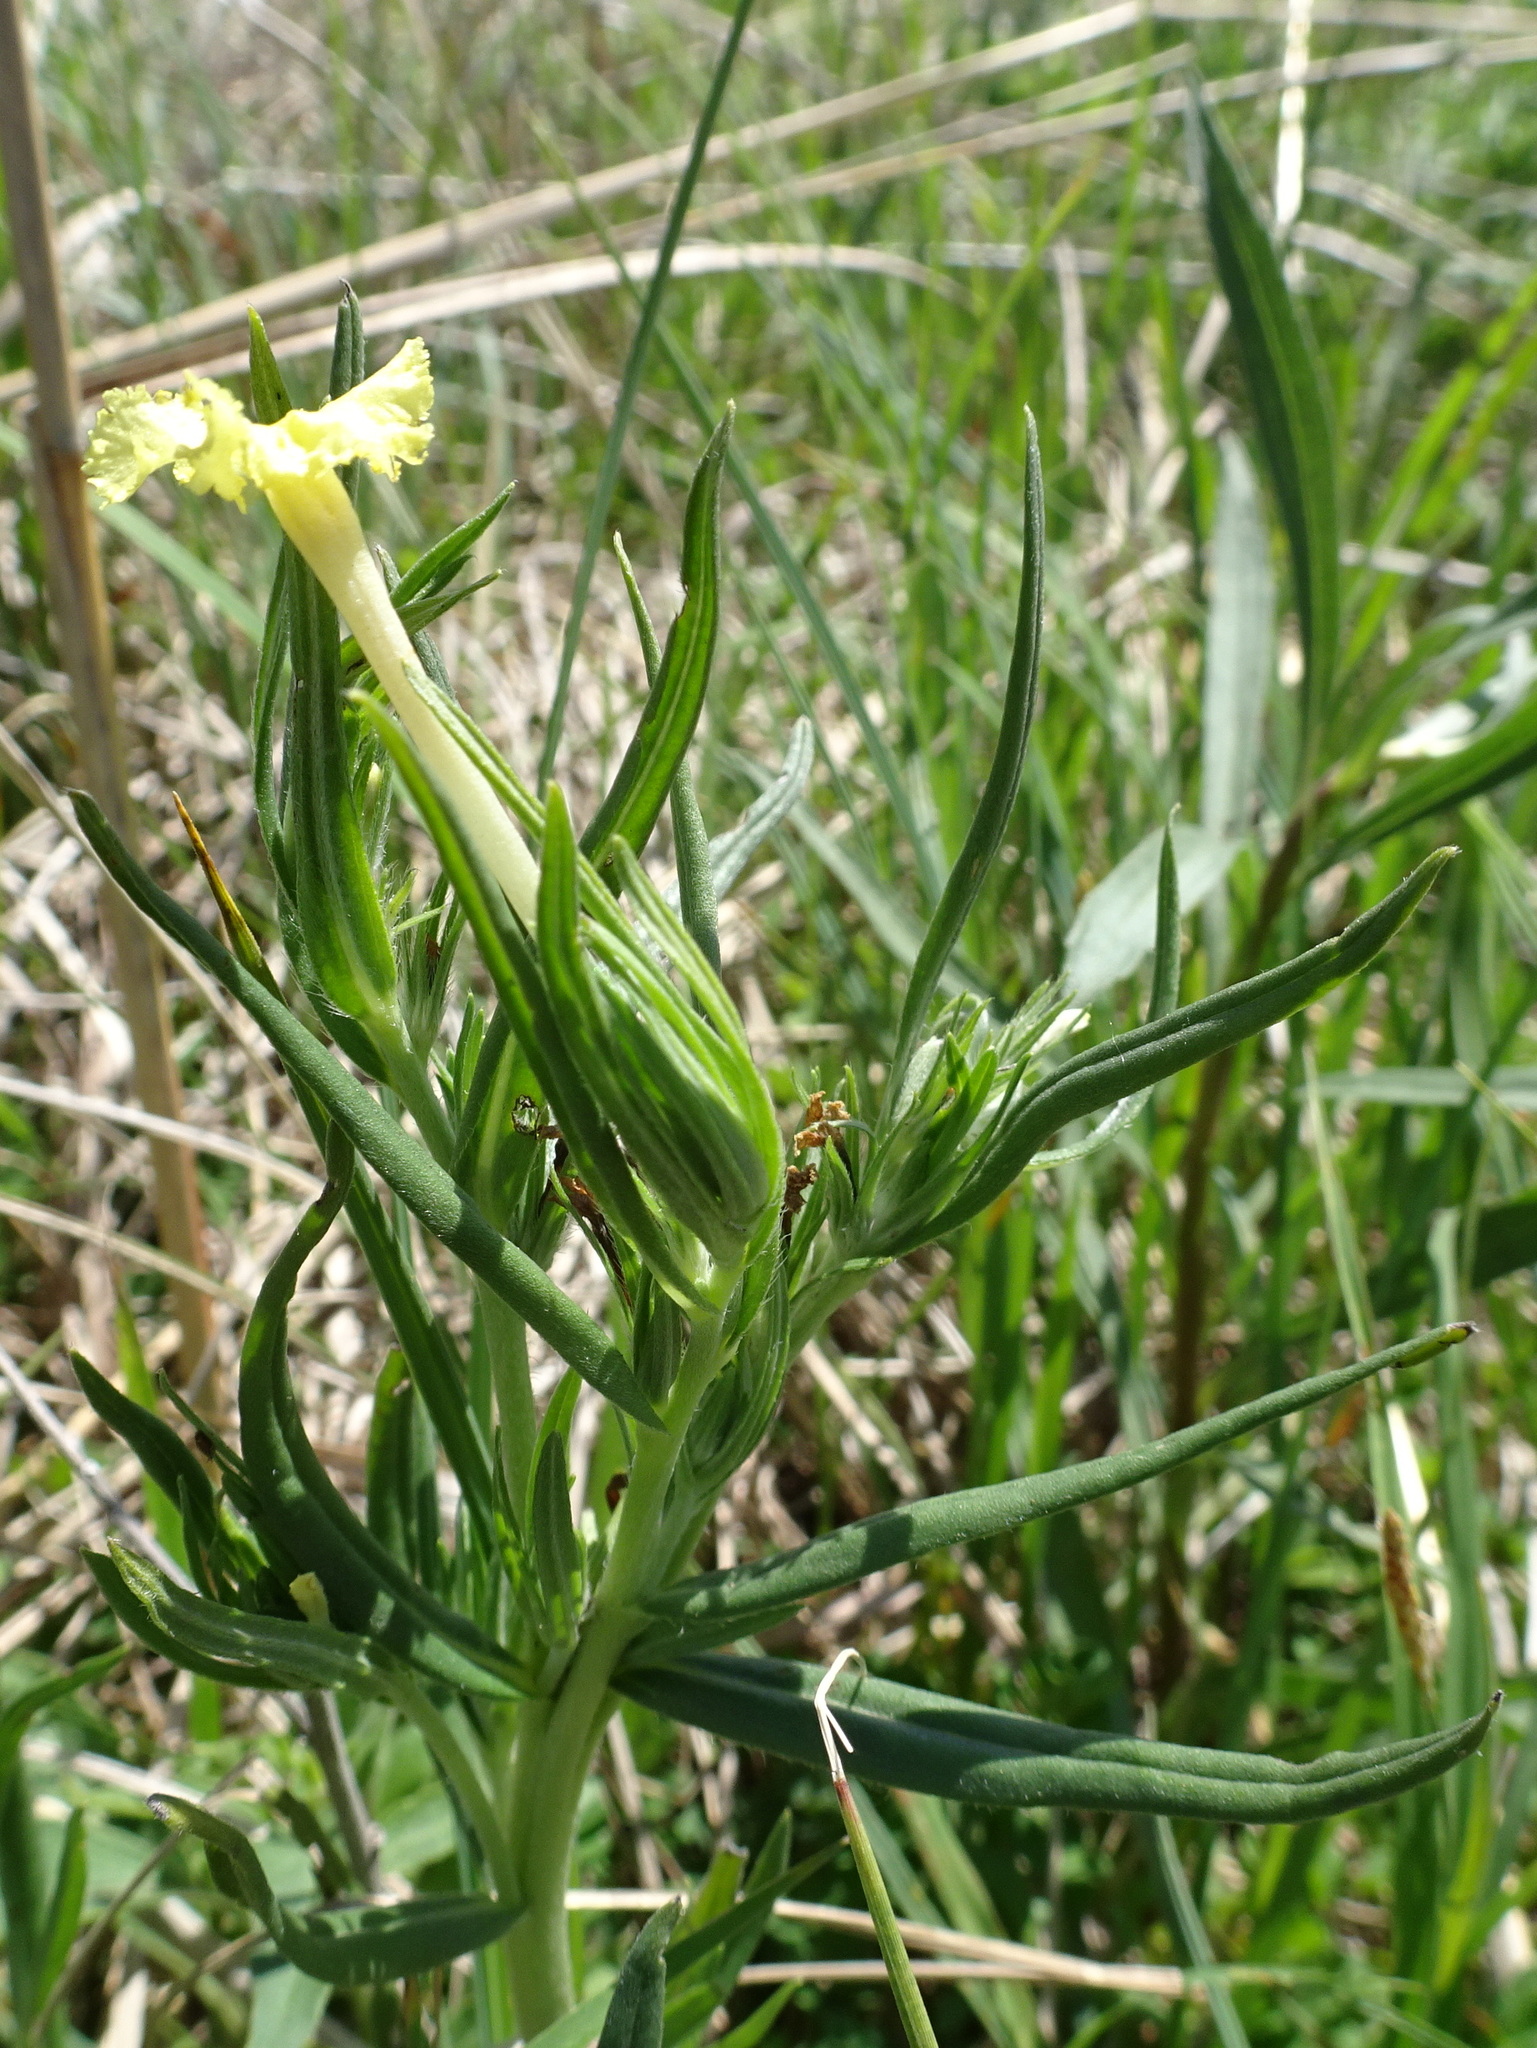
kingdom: Plantae
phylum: Tracheophyta
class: Magnoliopsida
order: Boraginales
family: Boraginaceae
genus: Lithospermum
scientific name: Lithospermum incisum
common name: Fringed gromwell
